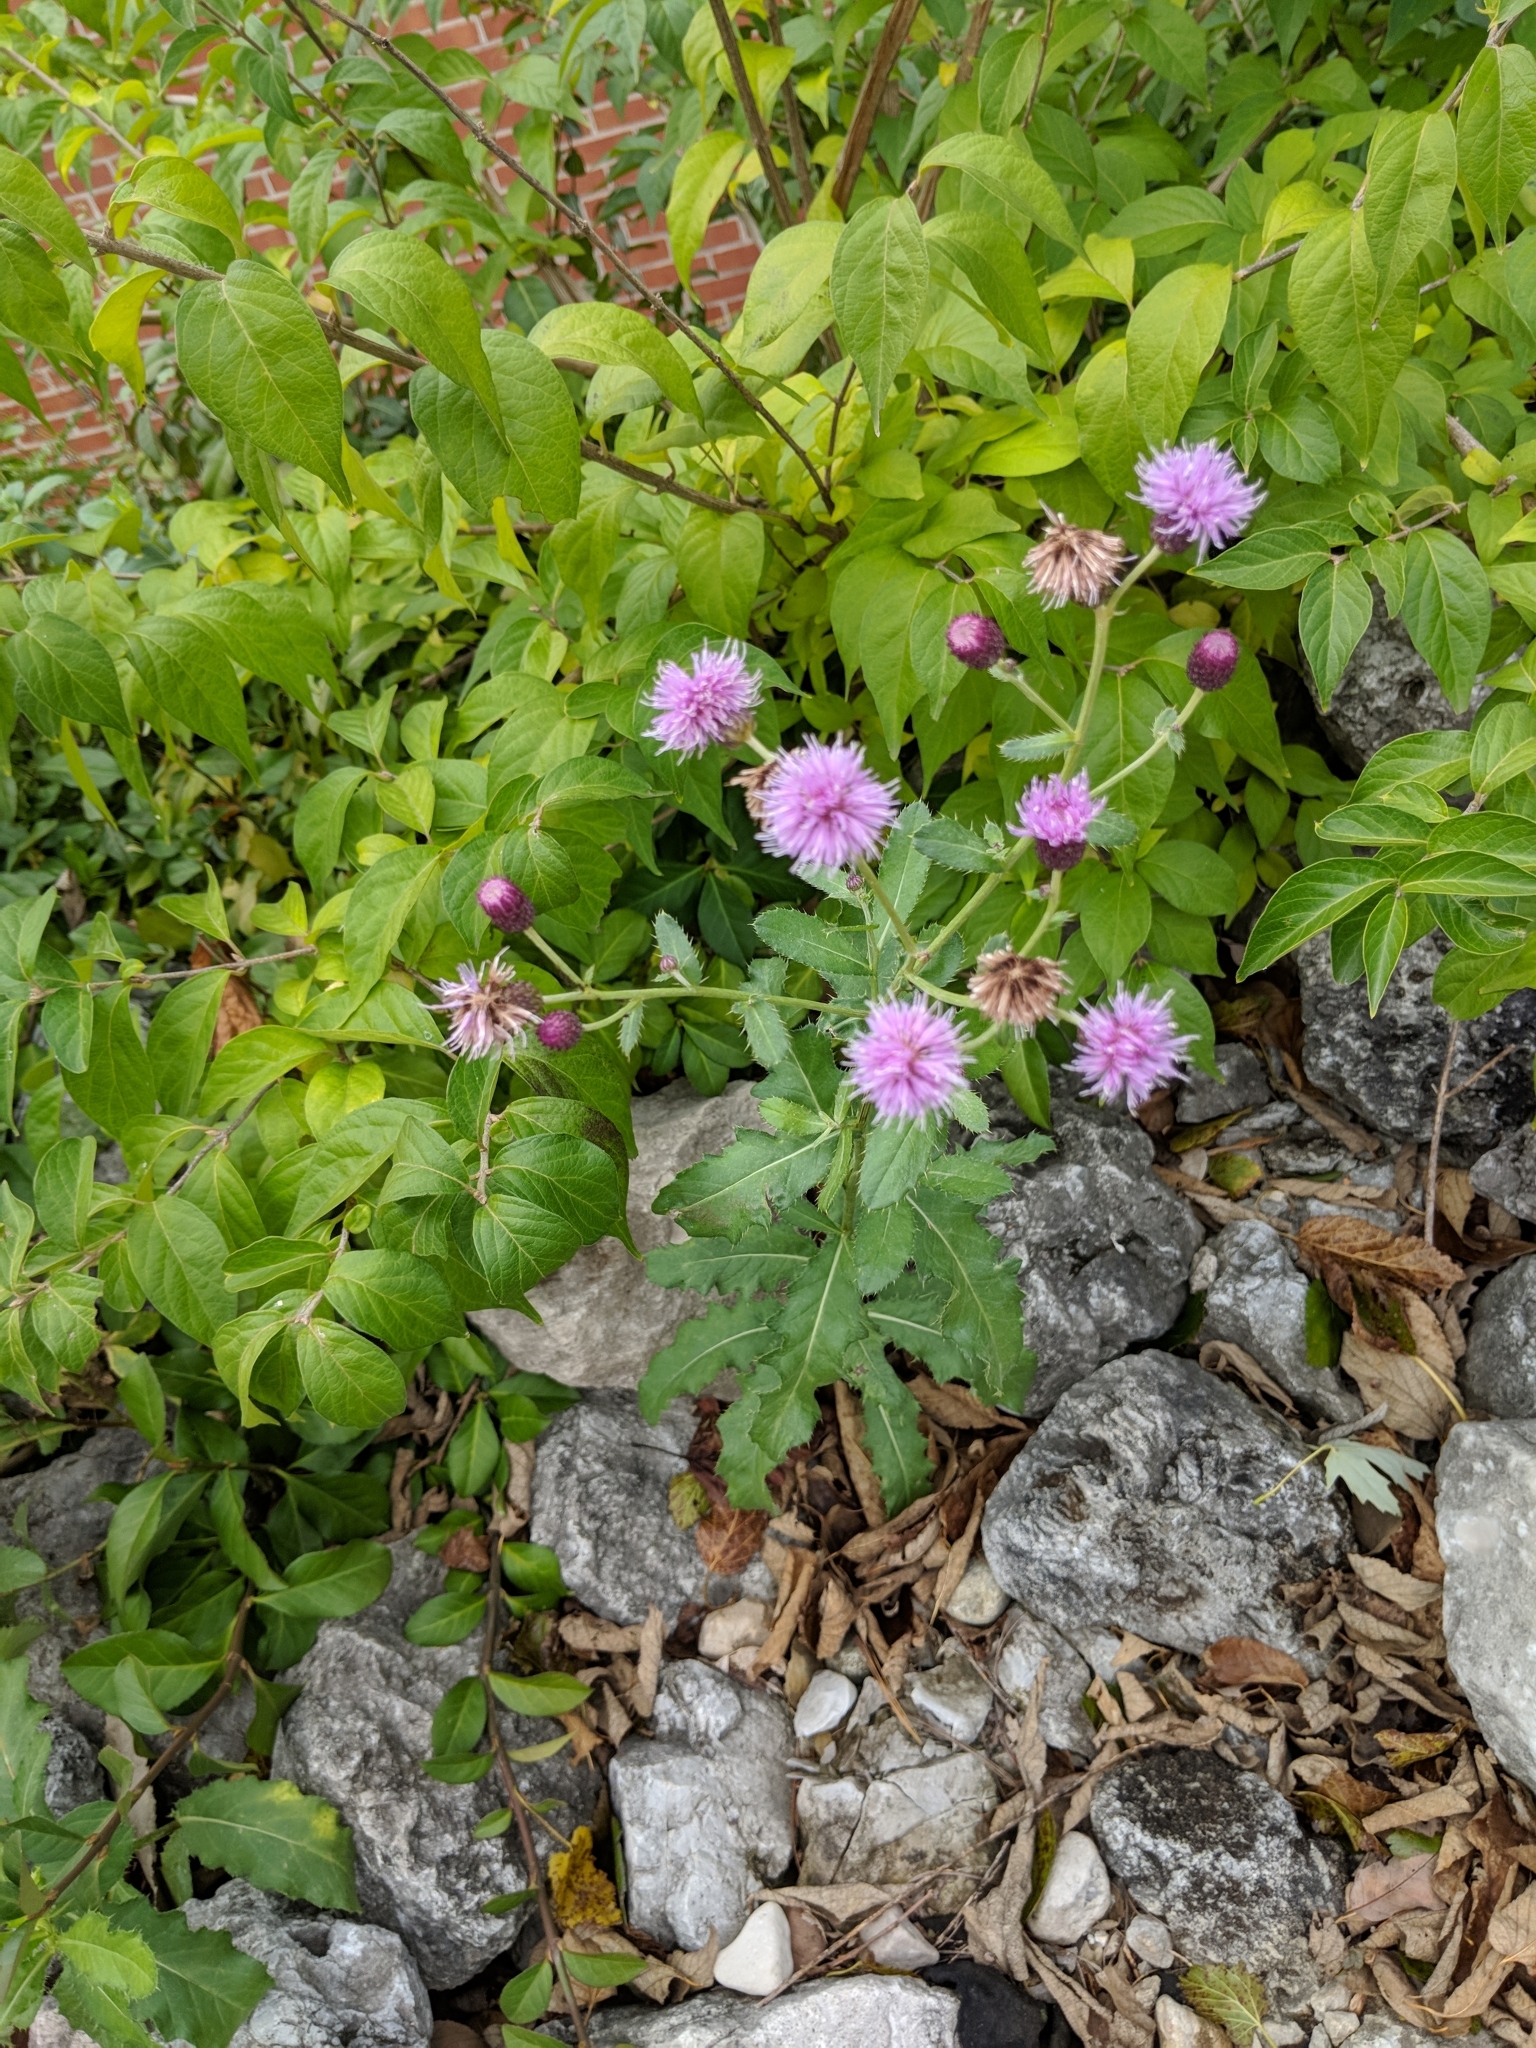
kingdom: Plantae
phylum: Tracheophyta
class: Magnoliopsida
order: Asterales
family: Asteraceae
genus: Cirsium
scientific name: Cirsium arvense
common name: Creeping thistle
